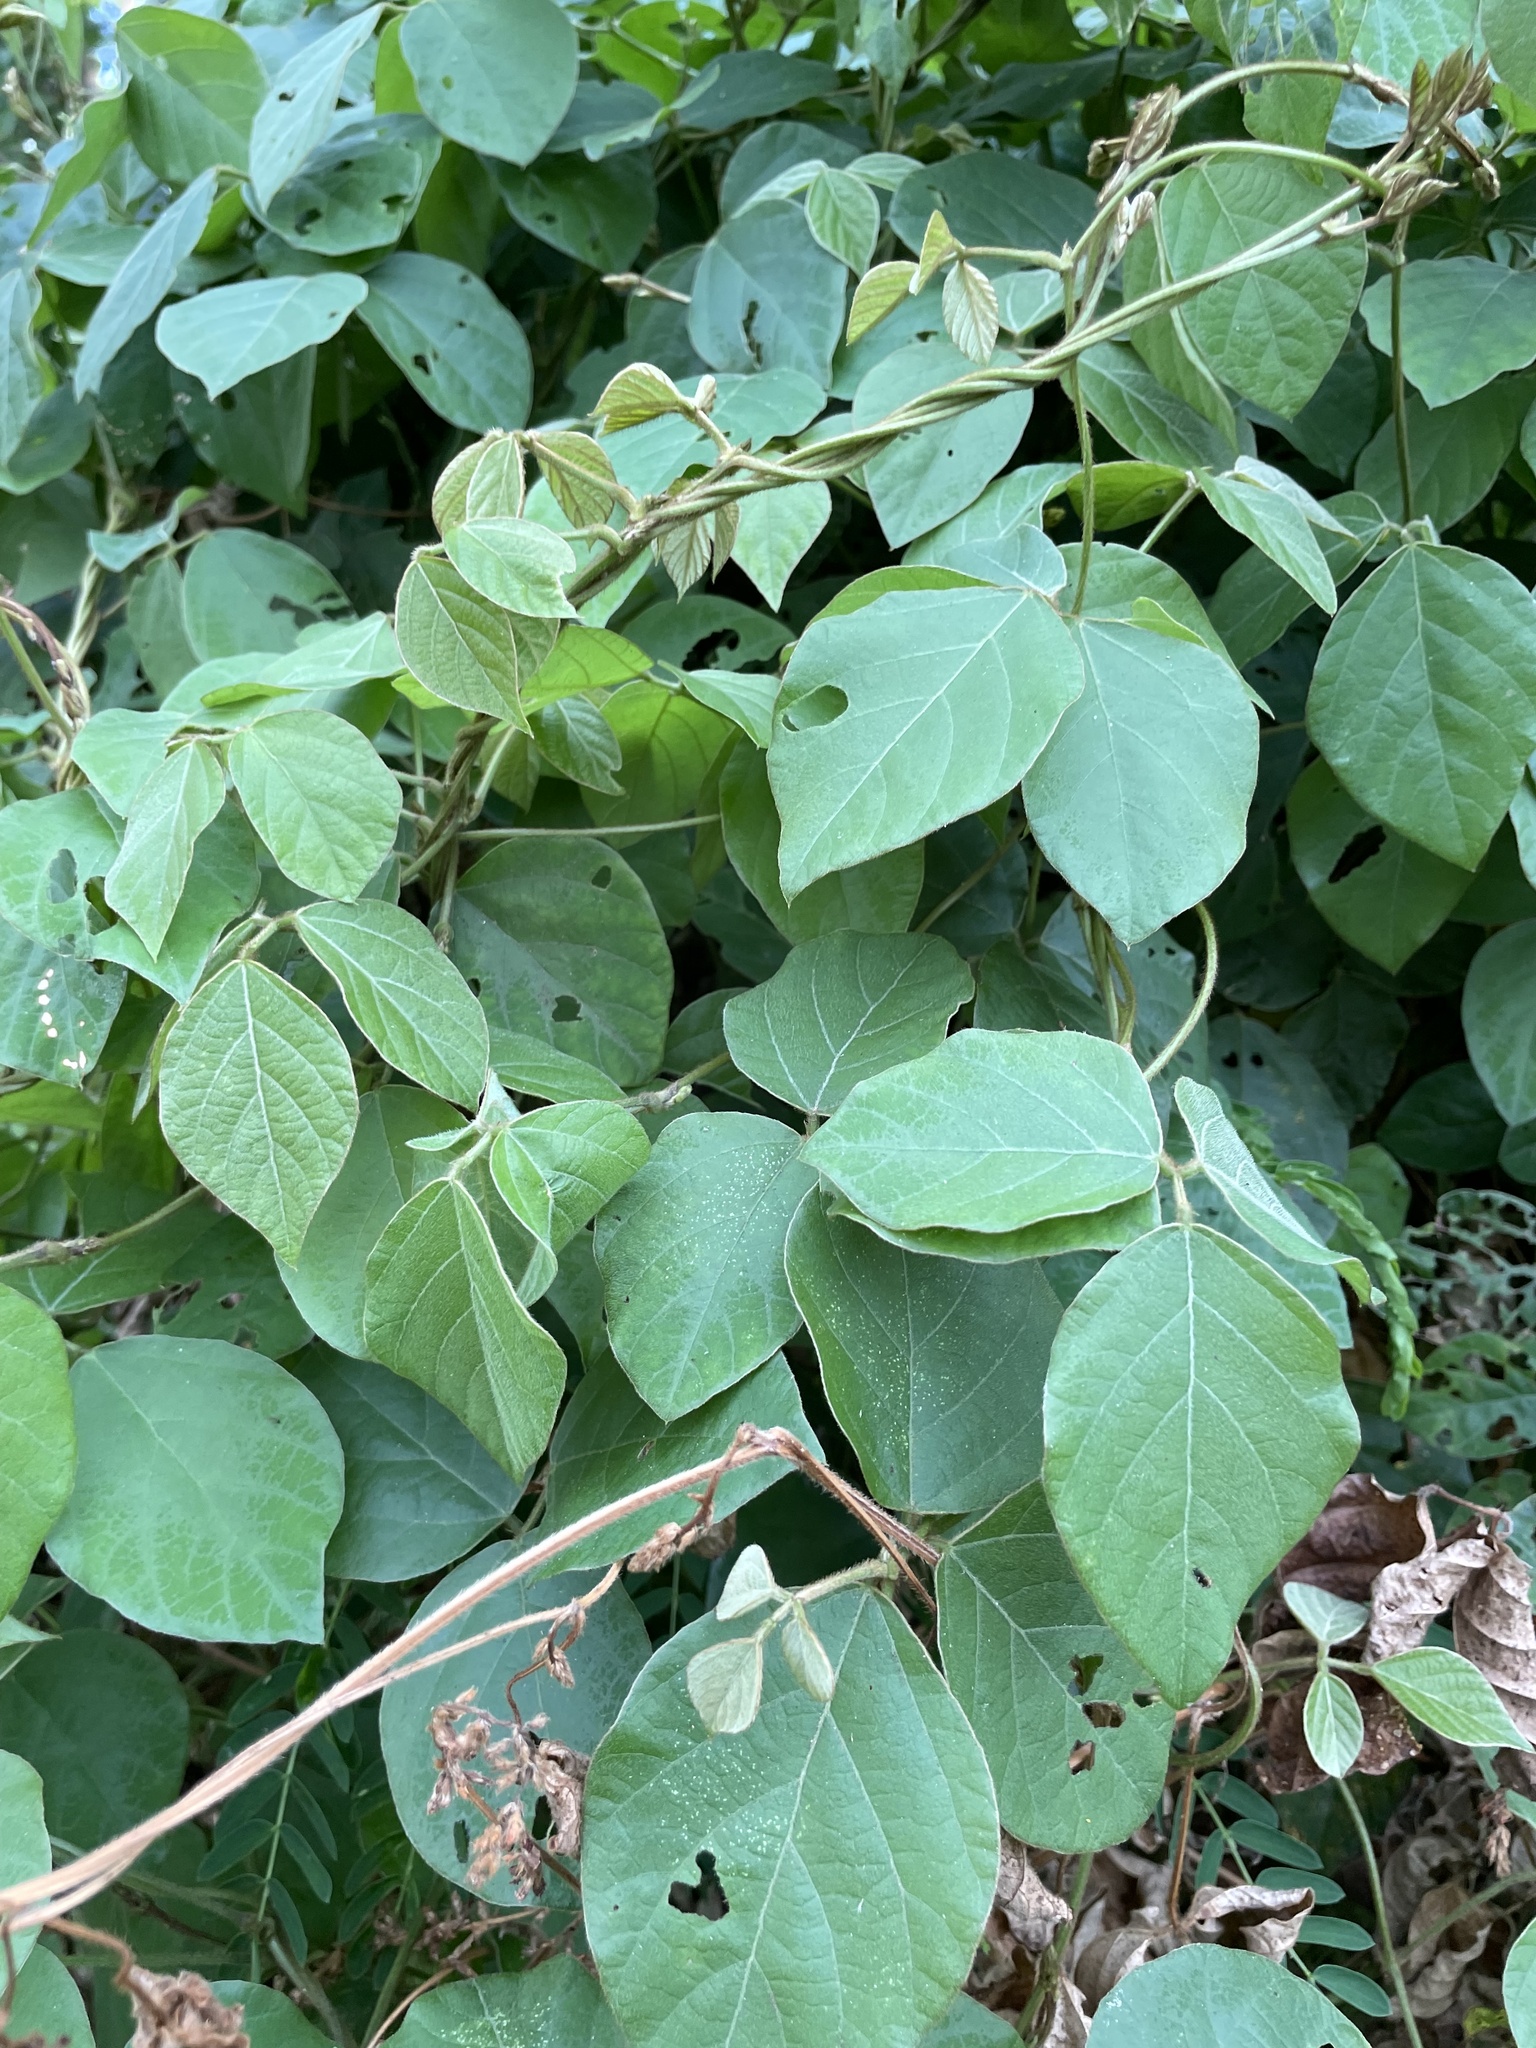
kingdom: Plantae
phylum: Tracheophyta
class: Magnoliopsida
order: Fabales
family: Fabaceae
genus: Neonotonia
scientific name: Neonotonia wightii
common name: Perennial soybean
